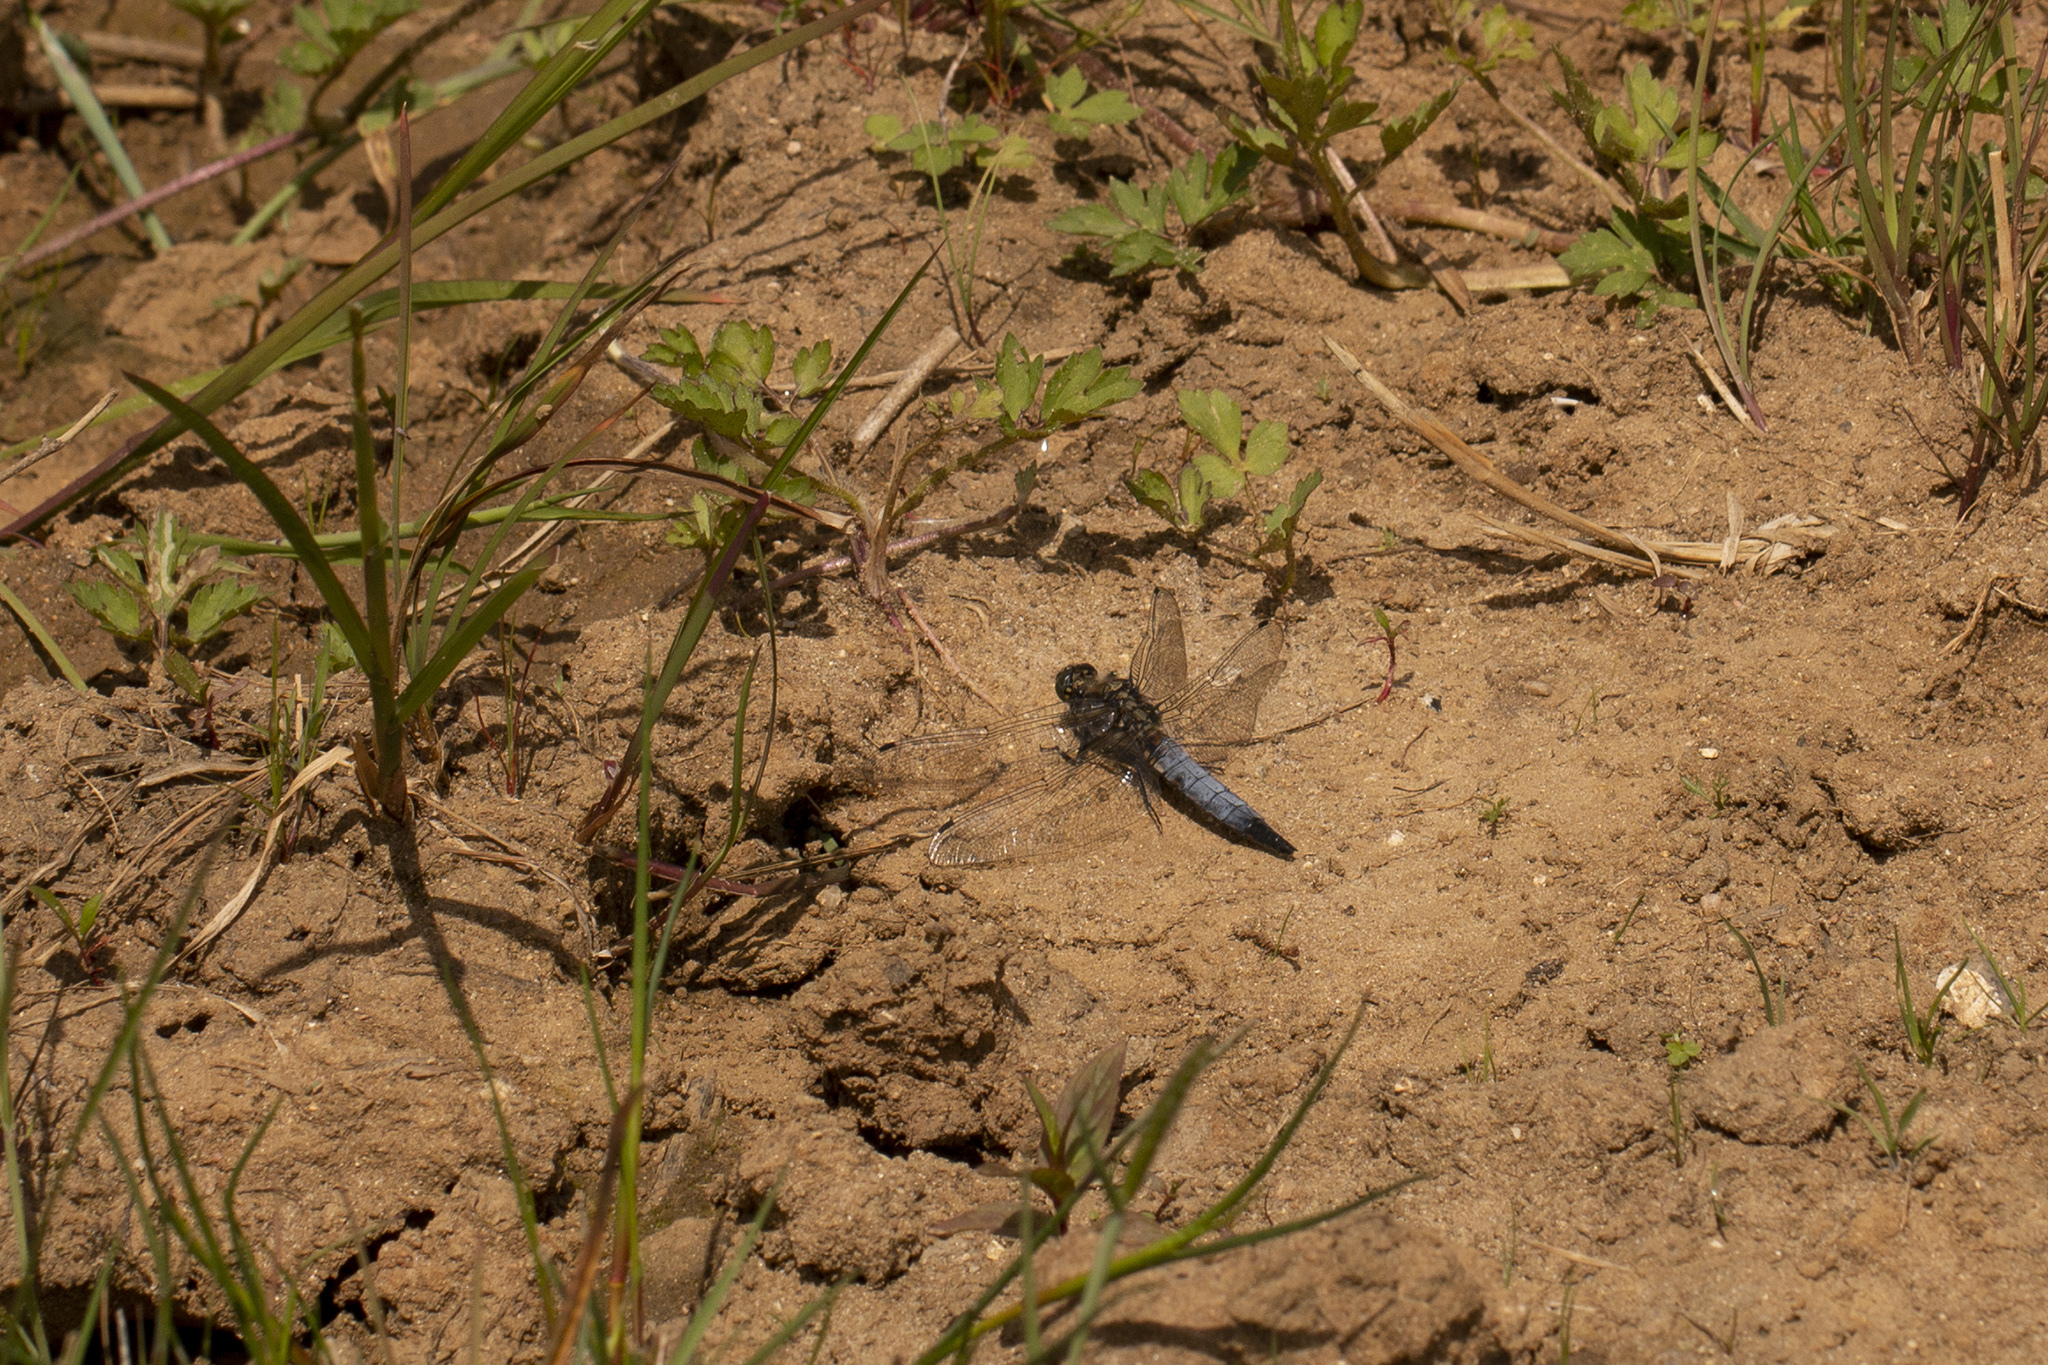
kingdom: Animalia
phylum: Arthropoda
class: Insecta
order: Odonata
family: Libellulidae
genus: Orthetrum
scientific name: Orthetrum cancellatum
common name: Black-tailed skimmer
